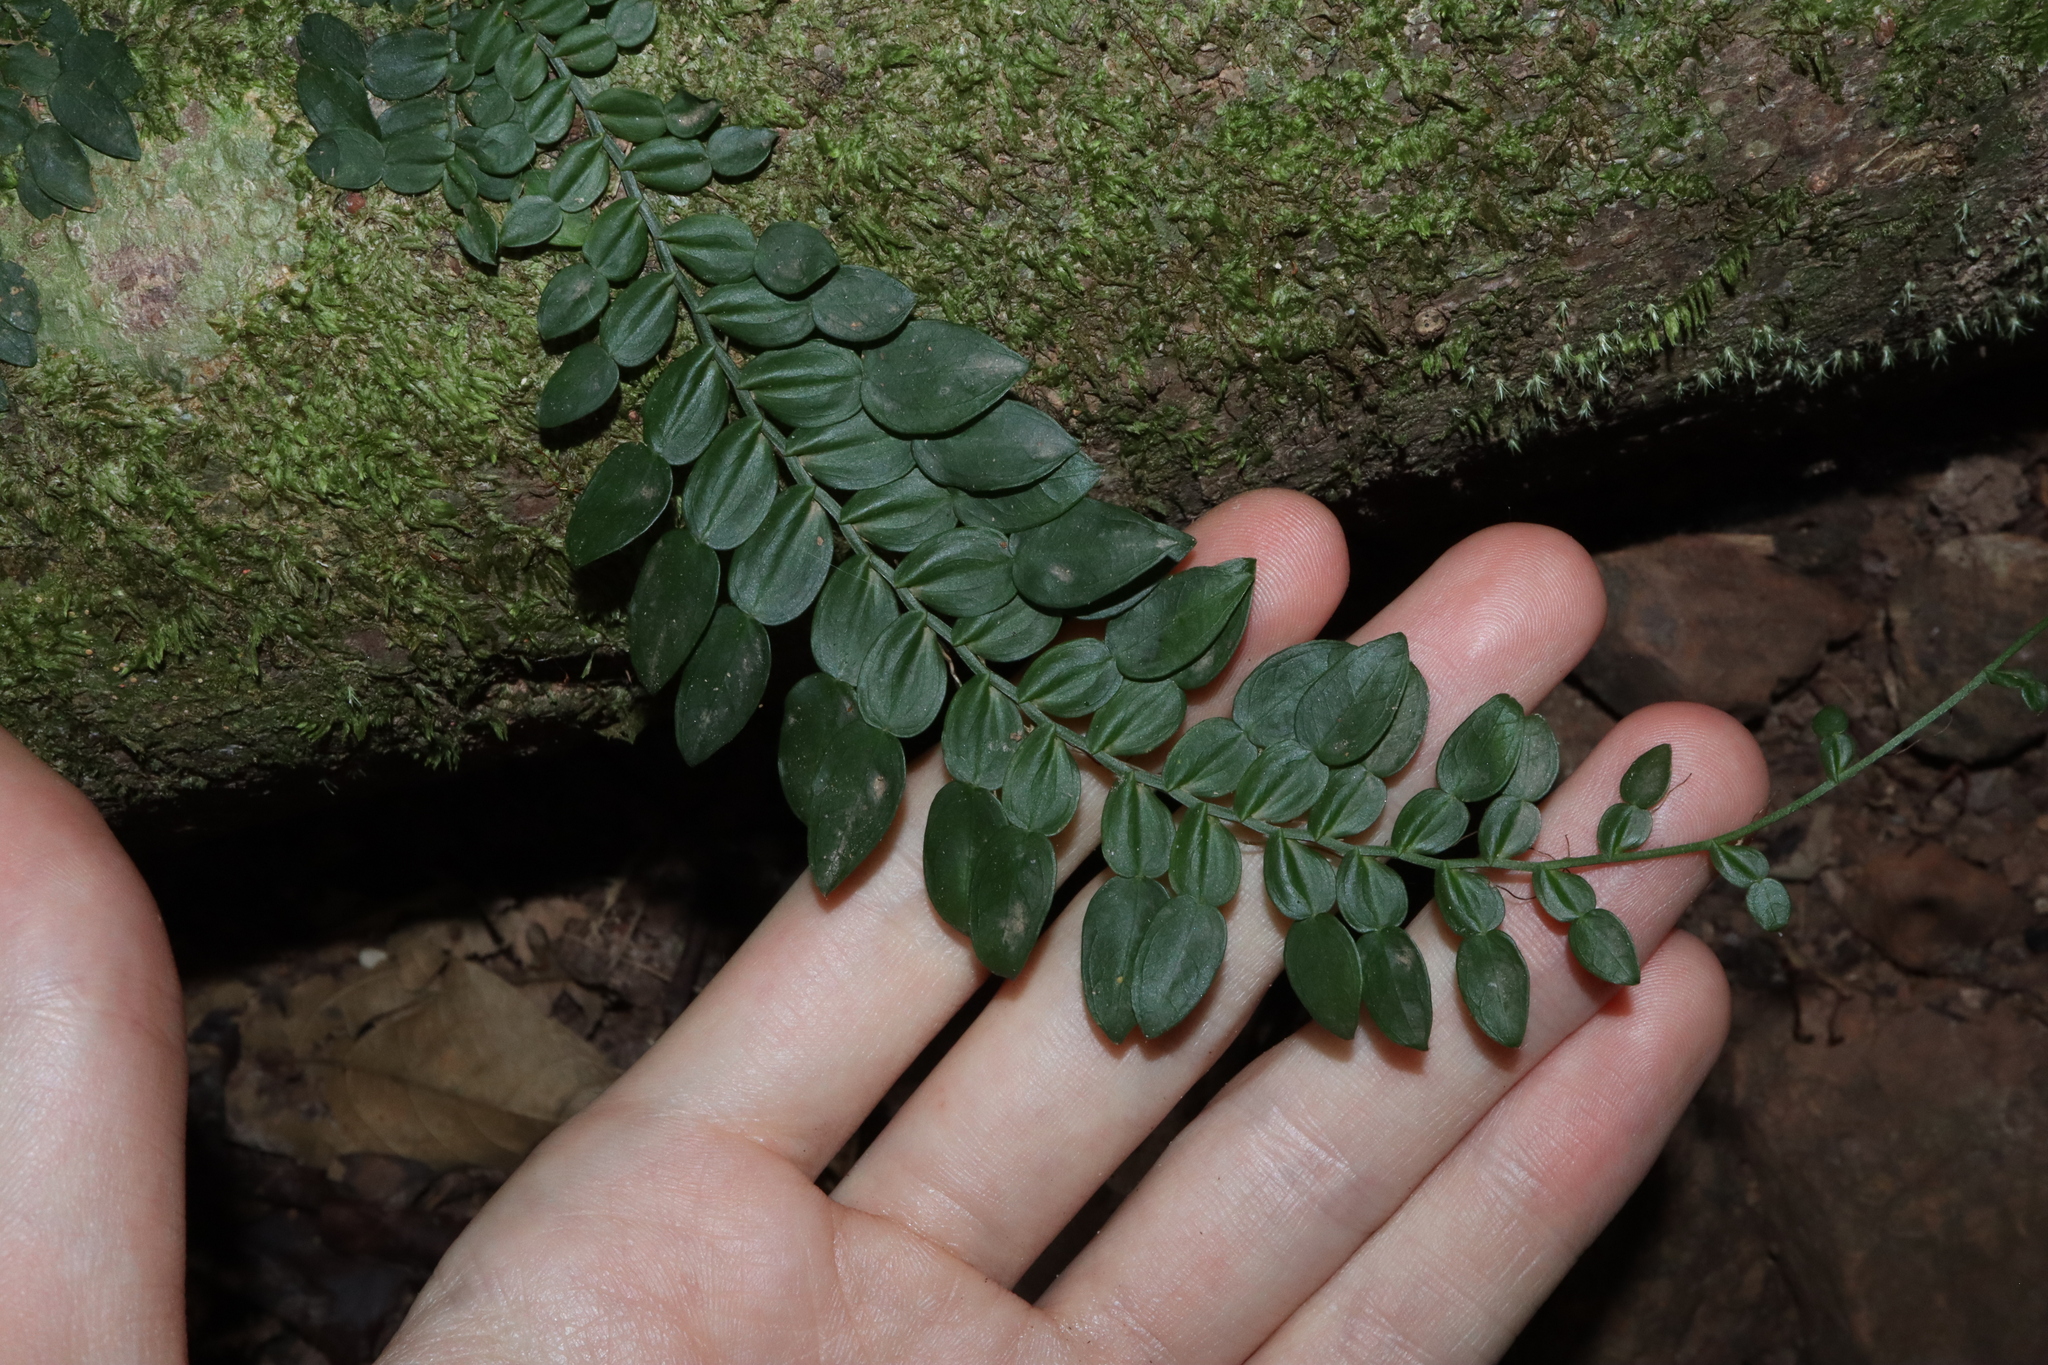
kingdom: Plantae
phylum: Tracheophyta
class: Liliopsida
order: Alismatales
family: Araceae
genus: Pothos
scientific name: Pothos longipes
